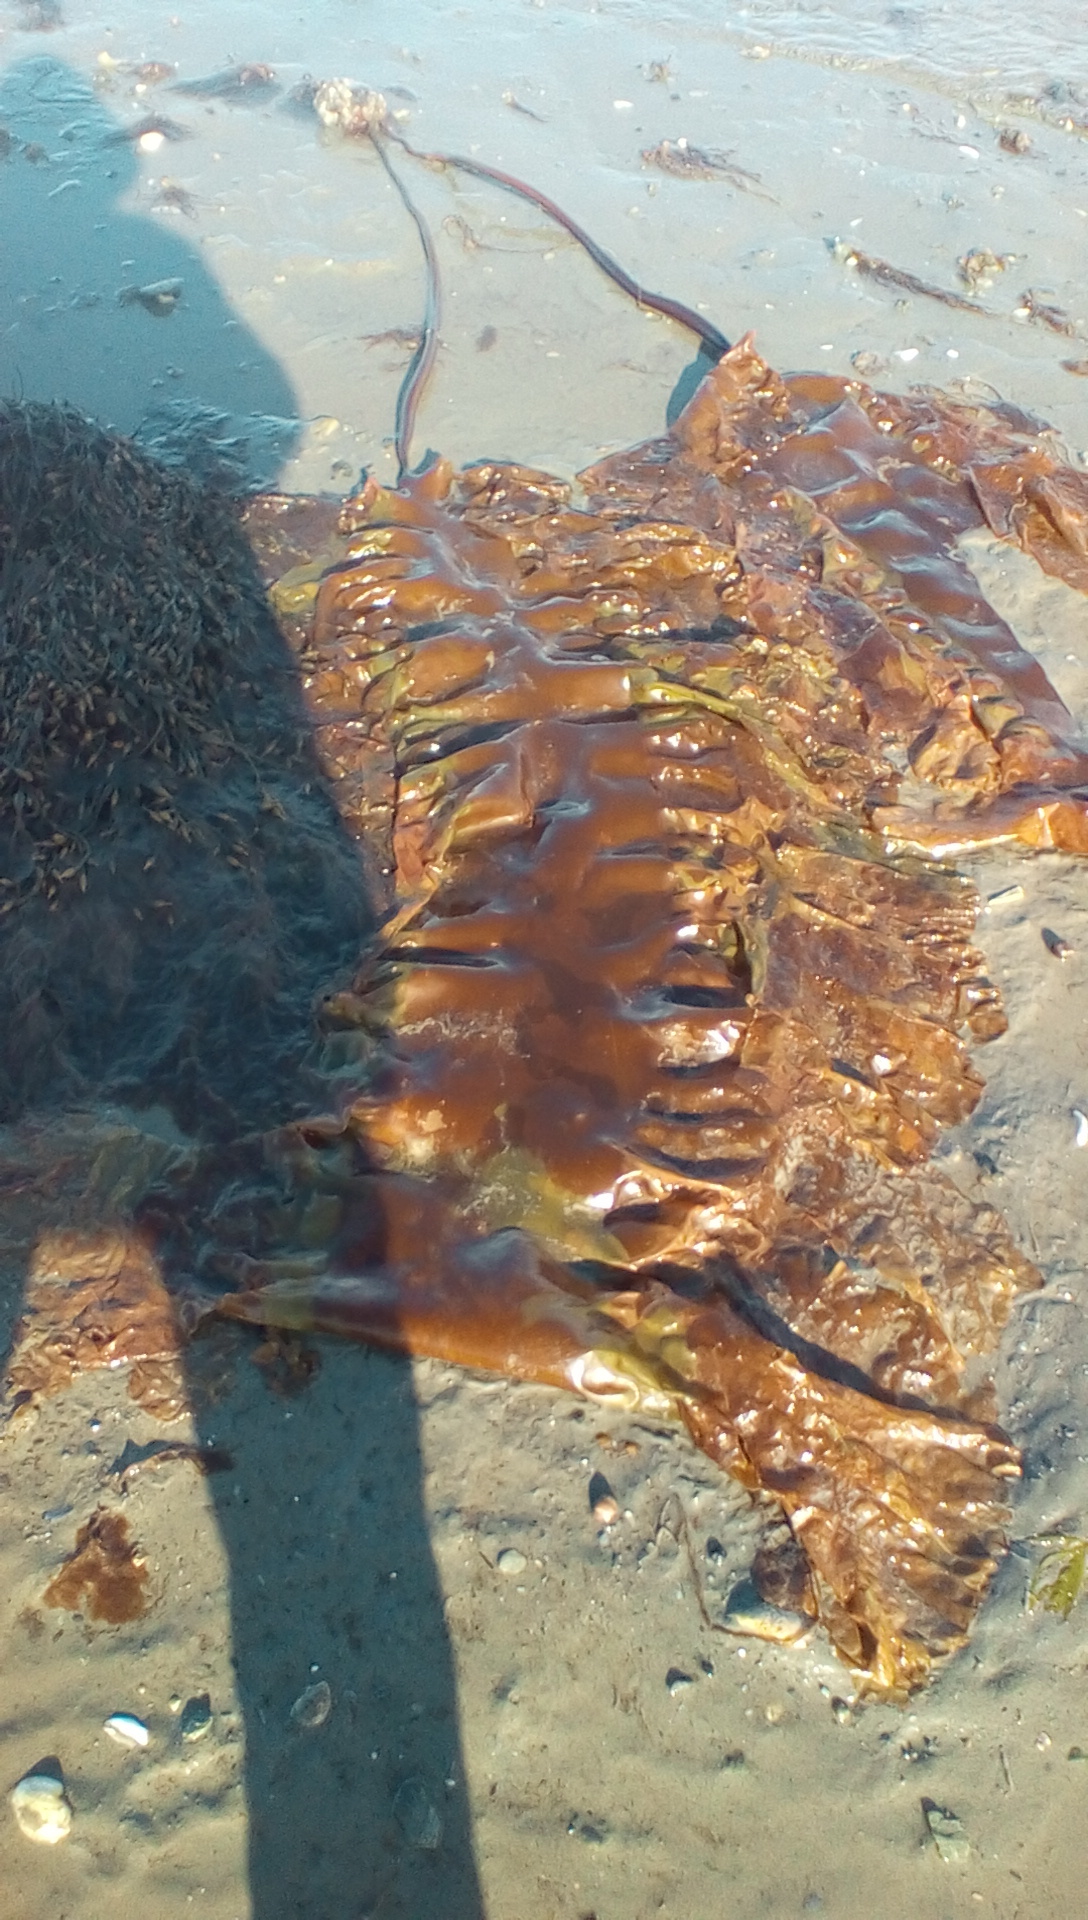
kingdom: Chromista
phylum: Ochrophyta
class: Phaeophyceae
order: Laminariales
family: Laminariaceae
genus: Saccharina
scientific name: Saccharina longicruris
